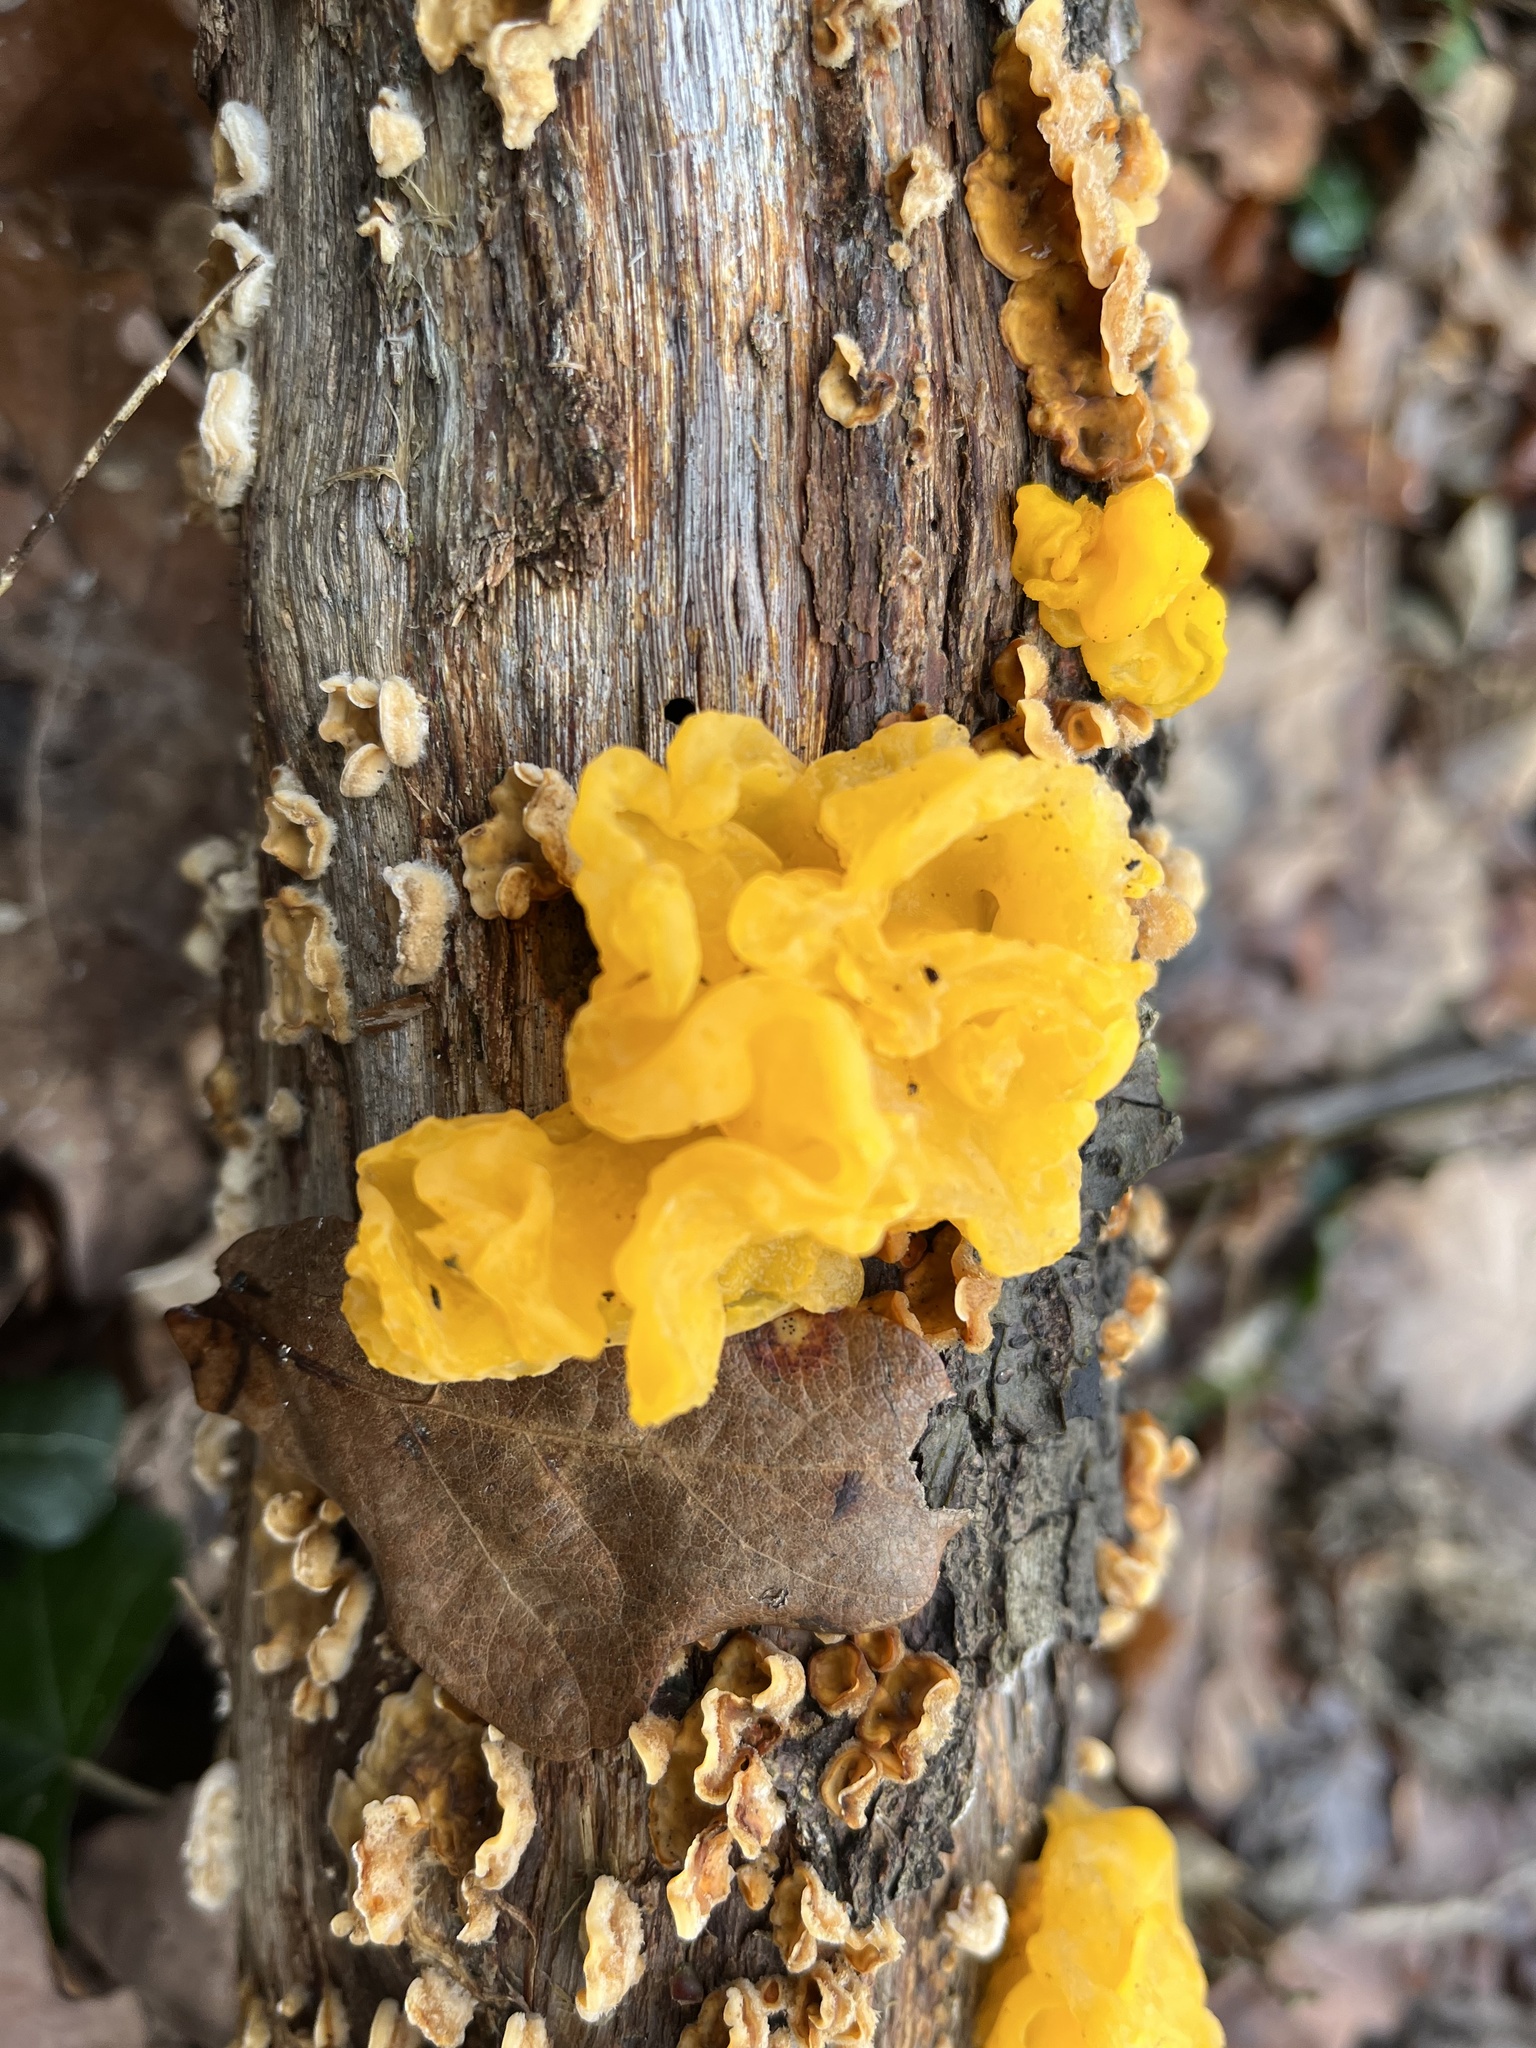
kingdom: Fungi
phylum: Basidiomycota
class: Tremellomycetes
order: Tremellales
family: Naemateliaceae
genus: Naematelia
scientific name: Naematelia aurantia
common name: Golden ear
